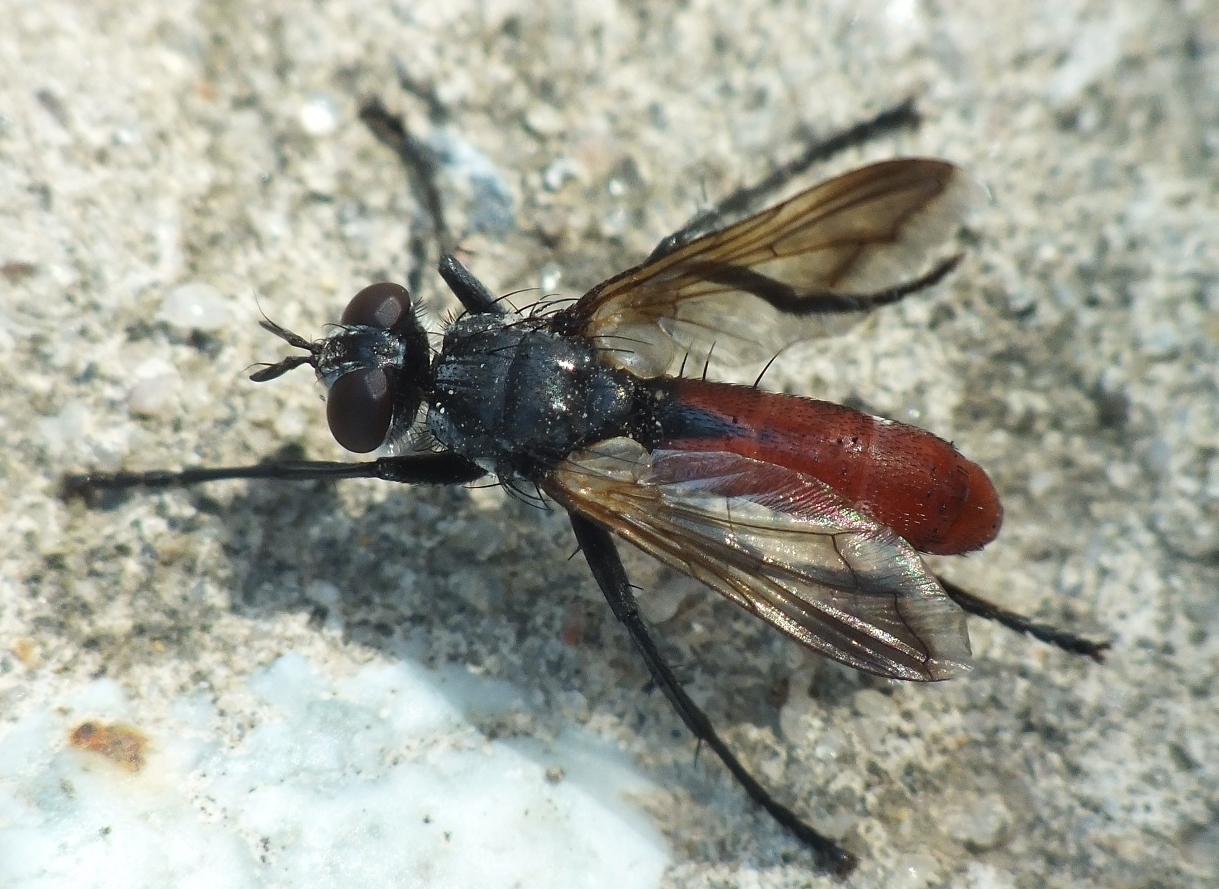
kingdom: Animalia
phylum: Arthropoda
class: Insecta
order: Diptera
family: Tachinidae
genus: Cylindromyia
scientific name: Cylindromyia bicolor
